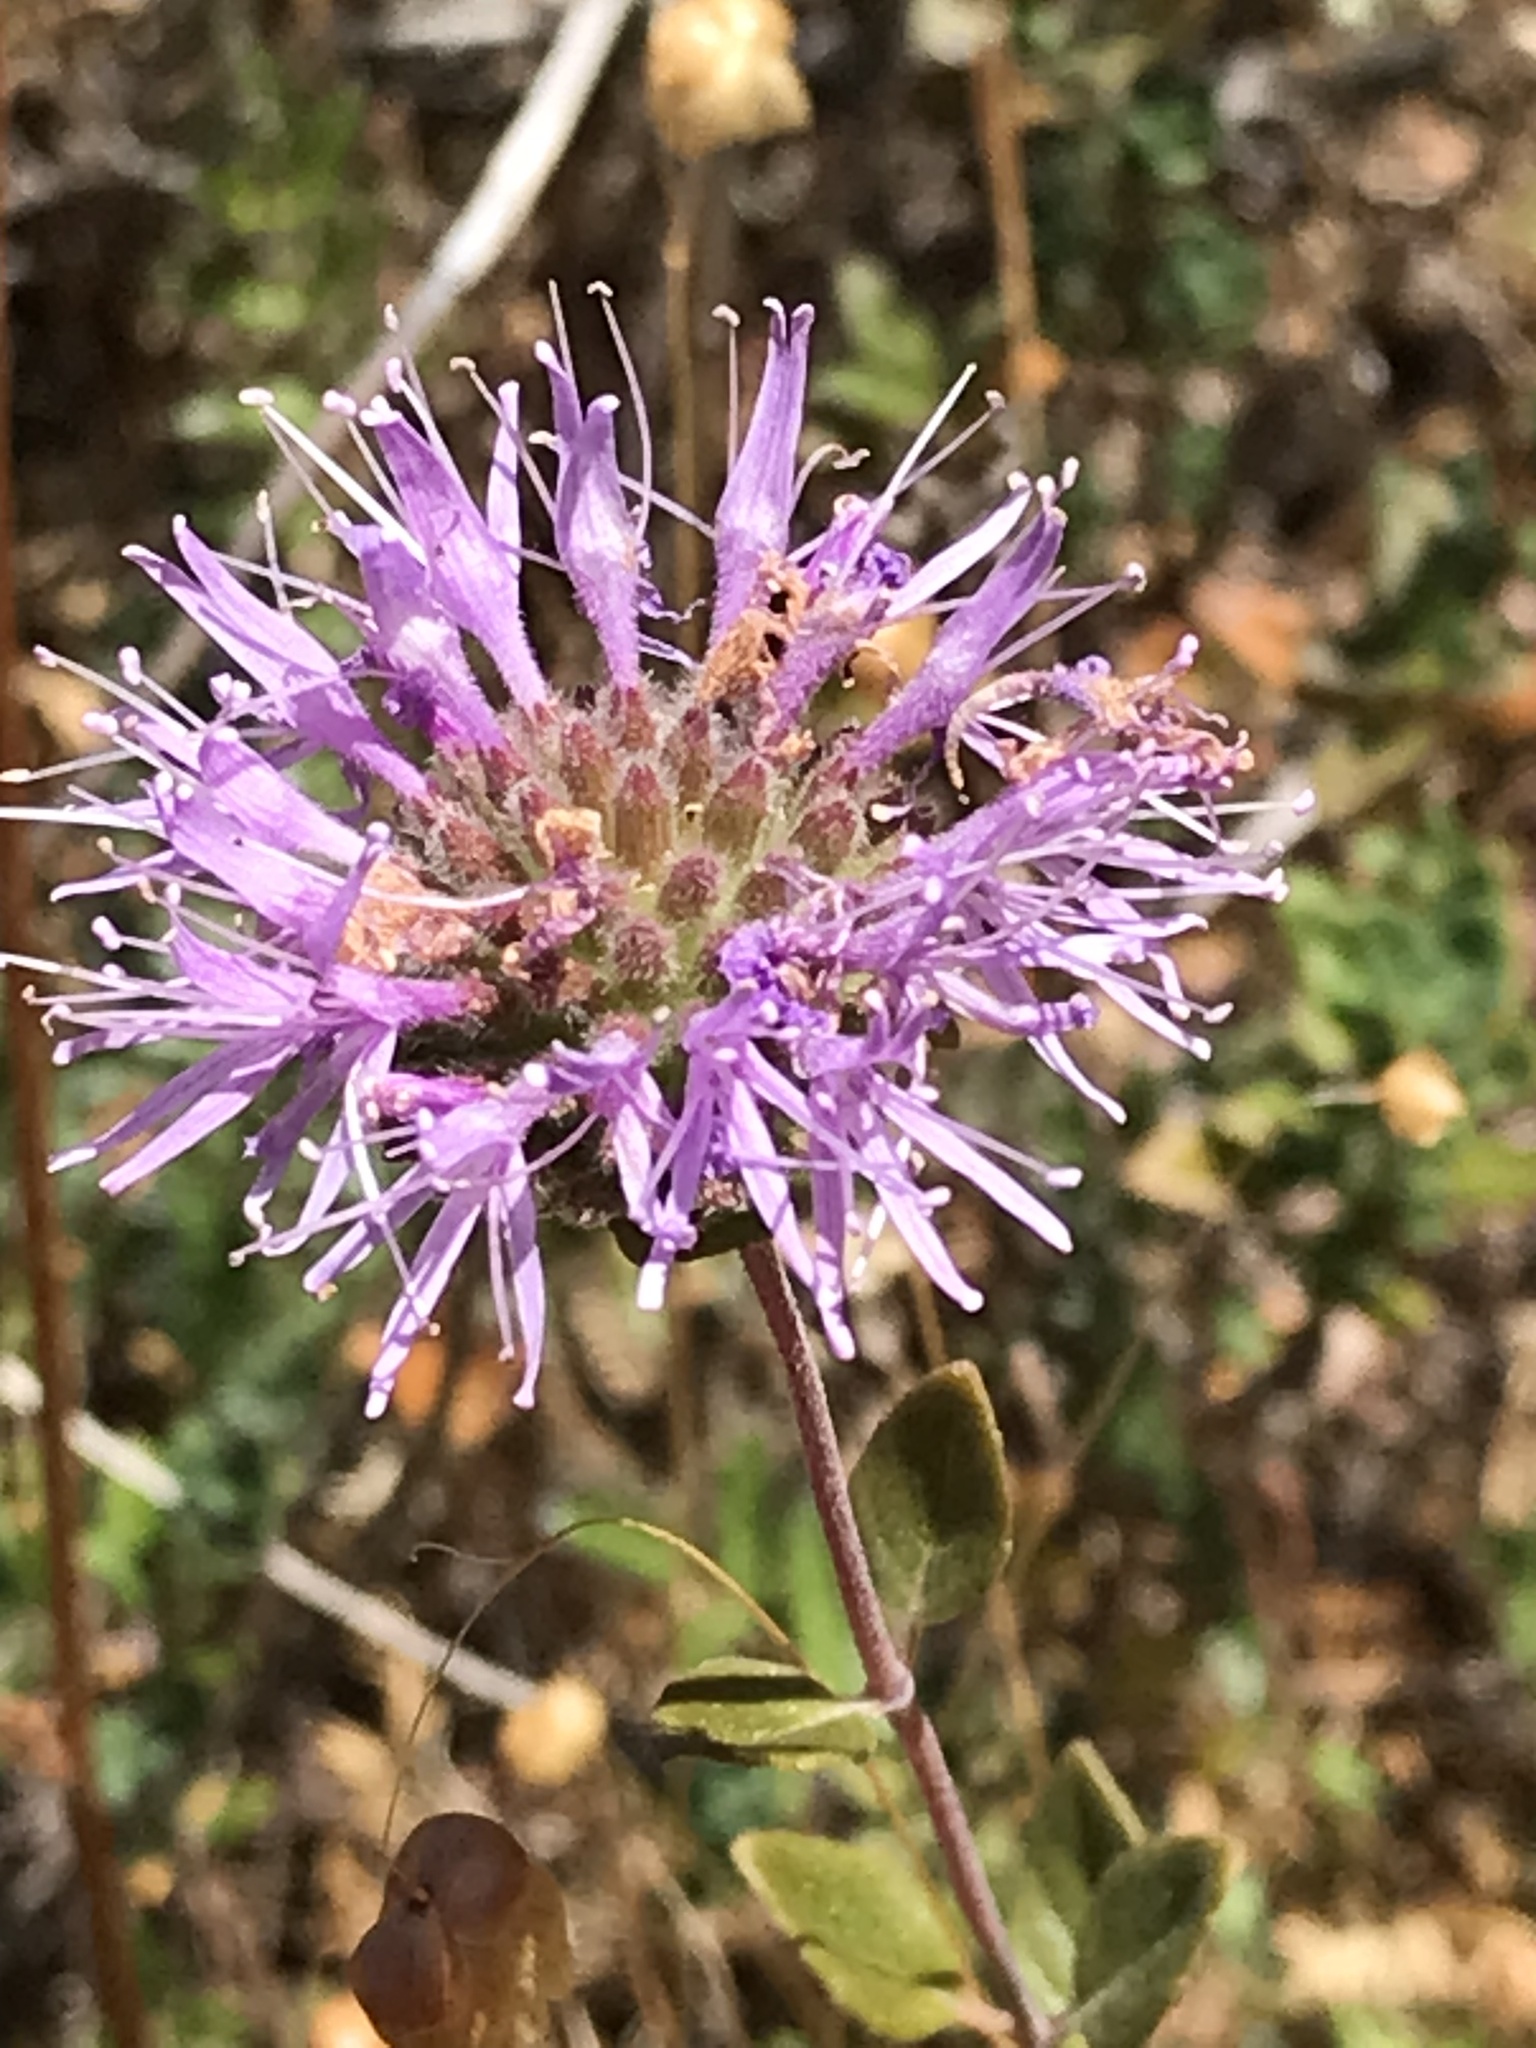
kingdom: Plantae
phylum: Tracheophyta
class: Magnoliopsida
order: Lamiales
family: Lamiaceae
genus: Monardella
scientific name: Monardella odoratissima
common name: Pacific monardella
